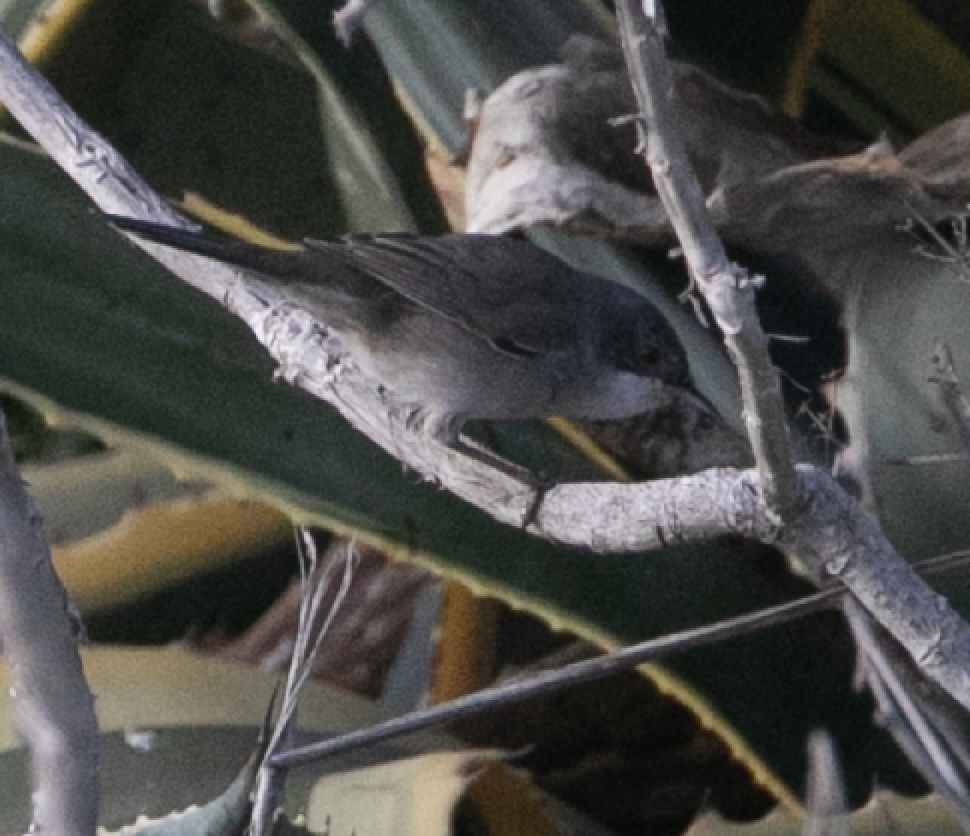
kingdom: Animalia
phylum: Chordata
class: Aves
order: Passeriformes
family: Sylviidae
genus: Curruca
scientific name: Curruca melanocephala
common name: Sardinian warbler
